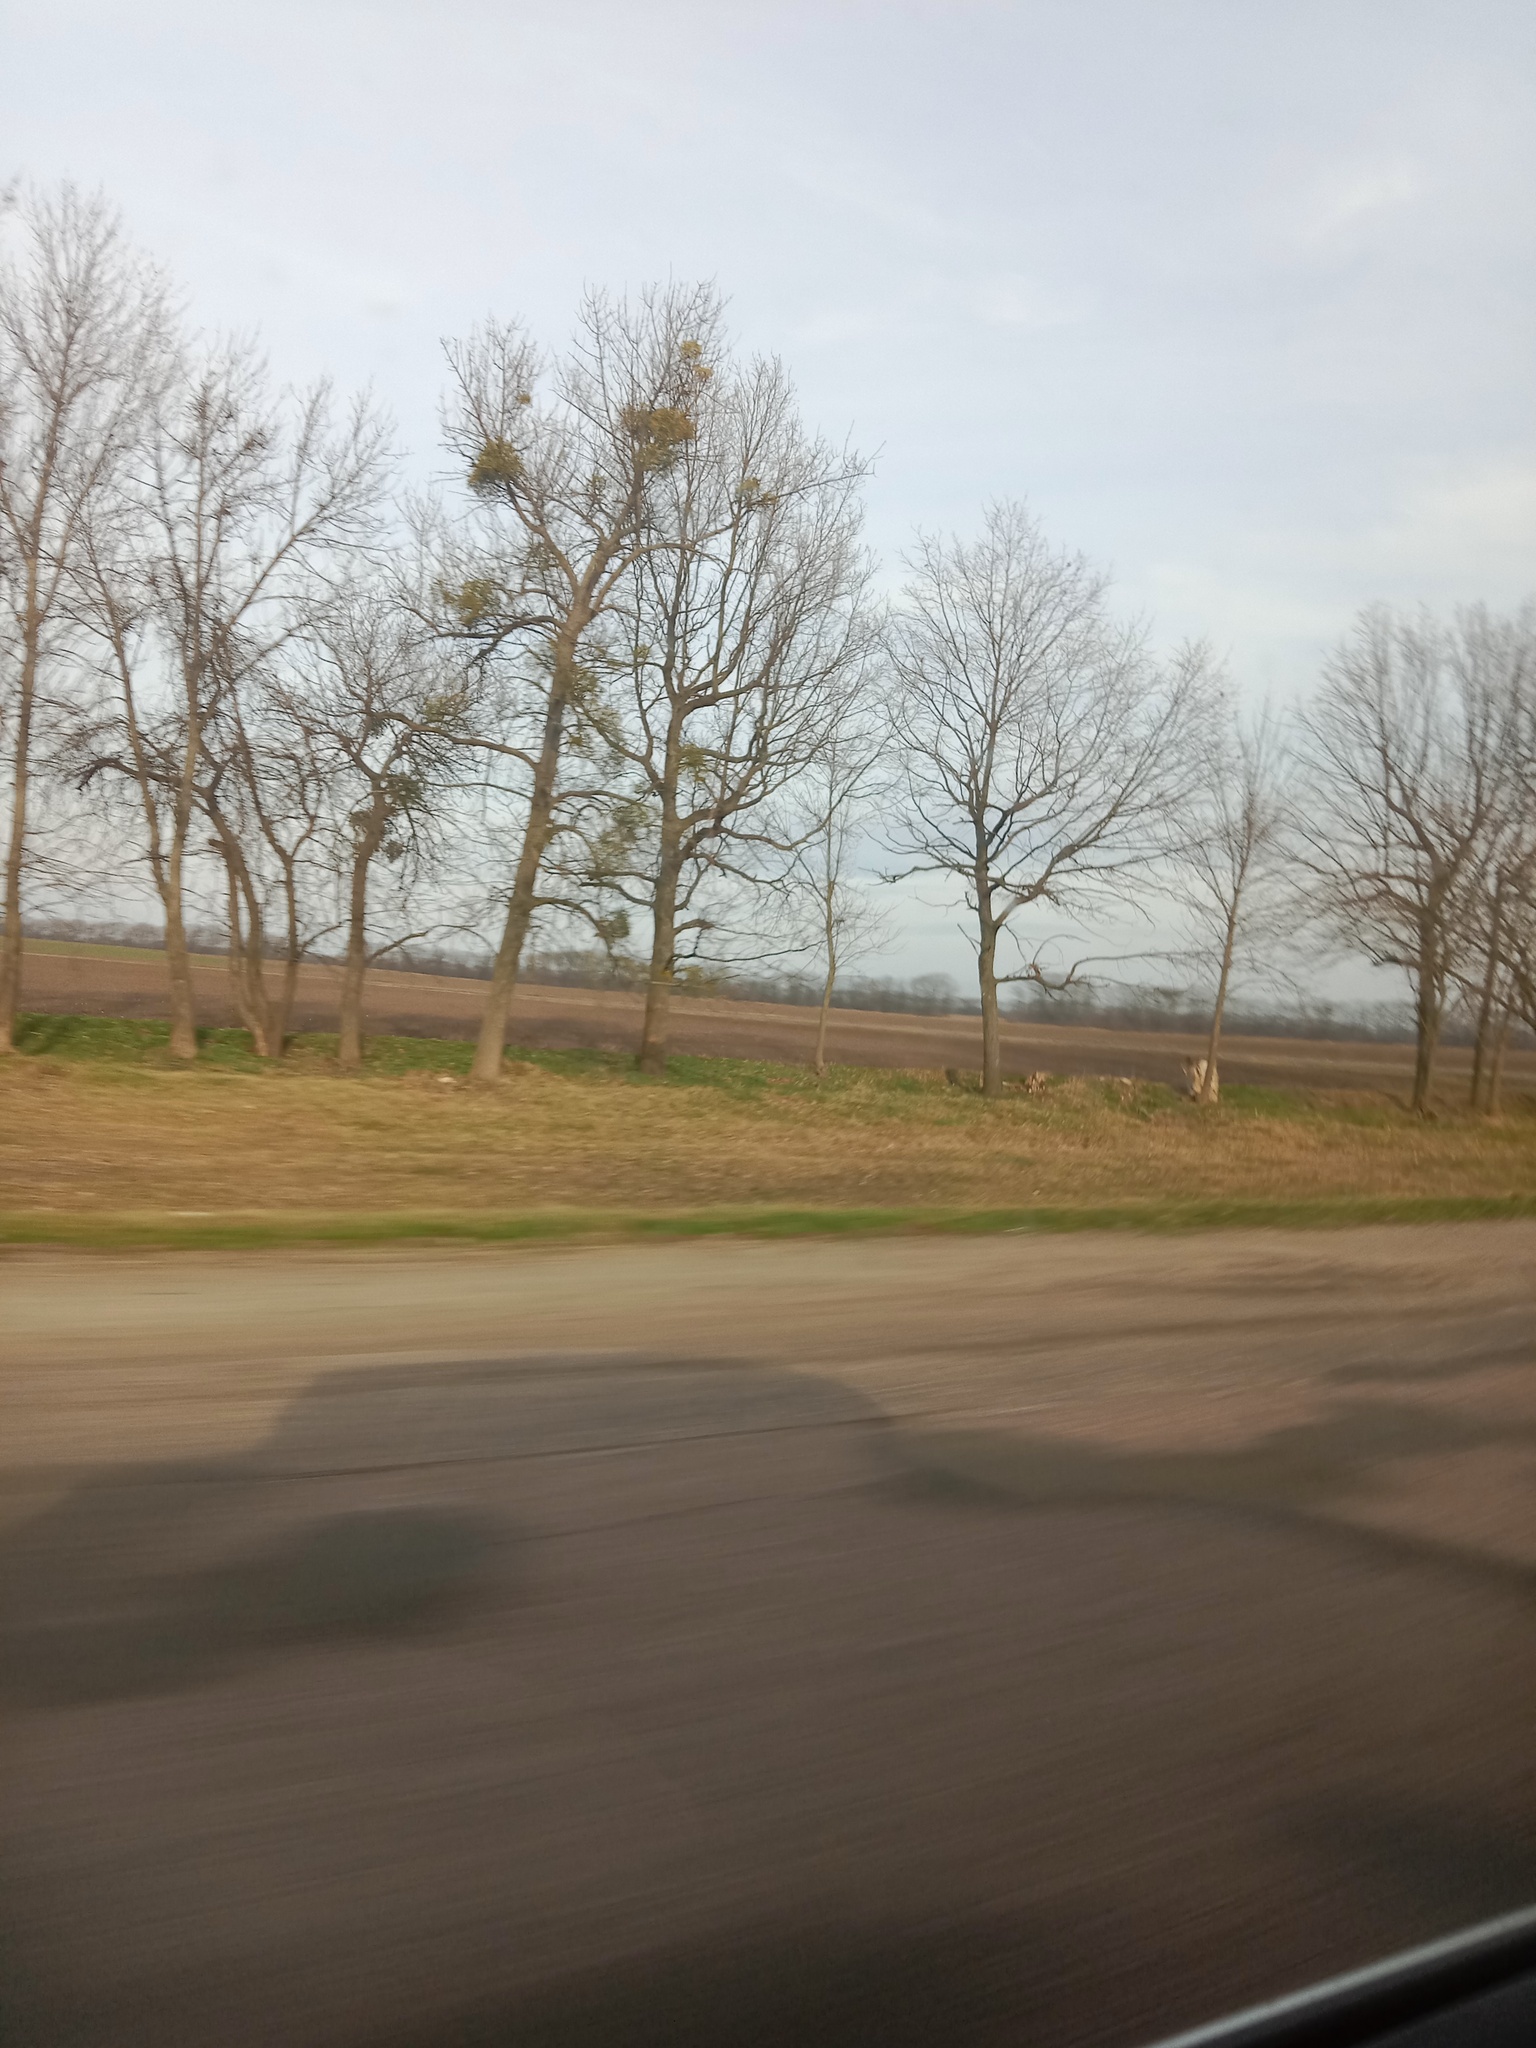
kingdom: Plantae
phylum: Tracheophyta
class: Magnoliopsida
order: Santalales
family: Viscaceae
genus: Viscum
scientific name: Viscum album
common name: Mistletoe
